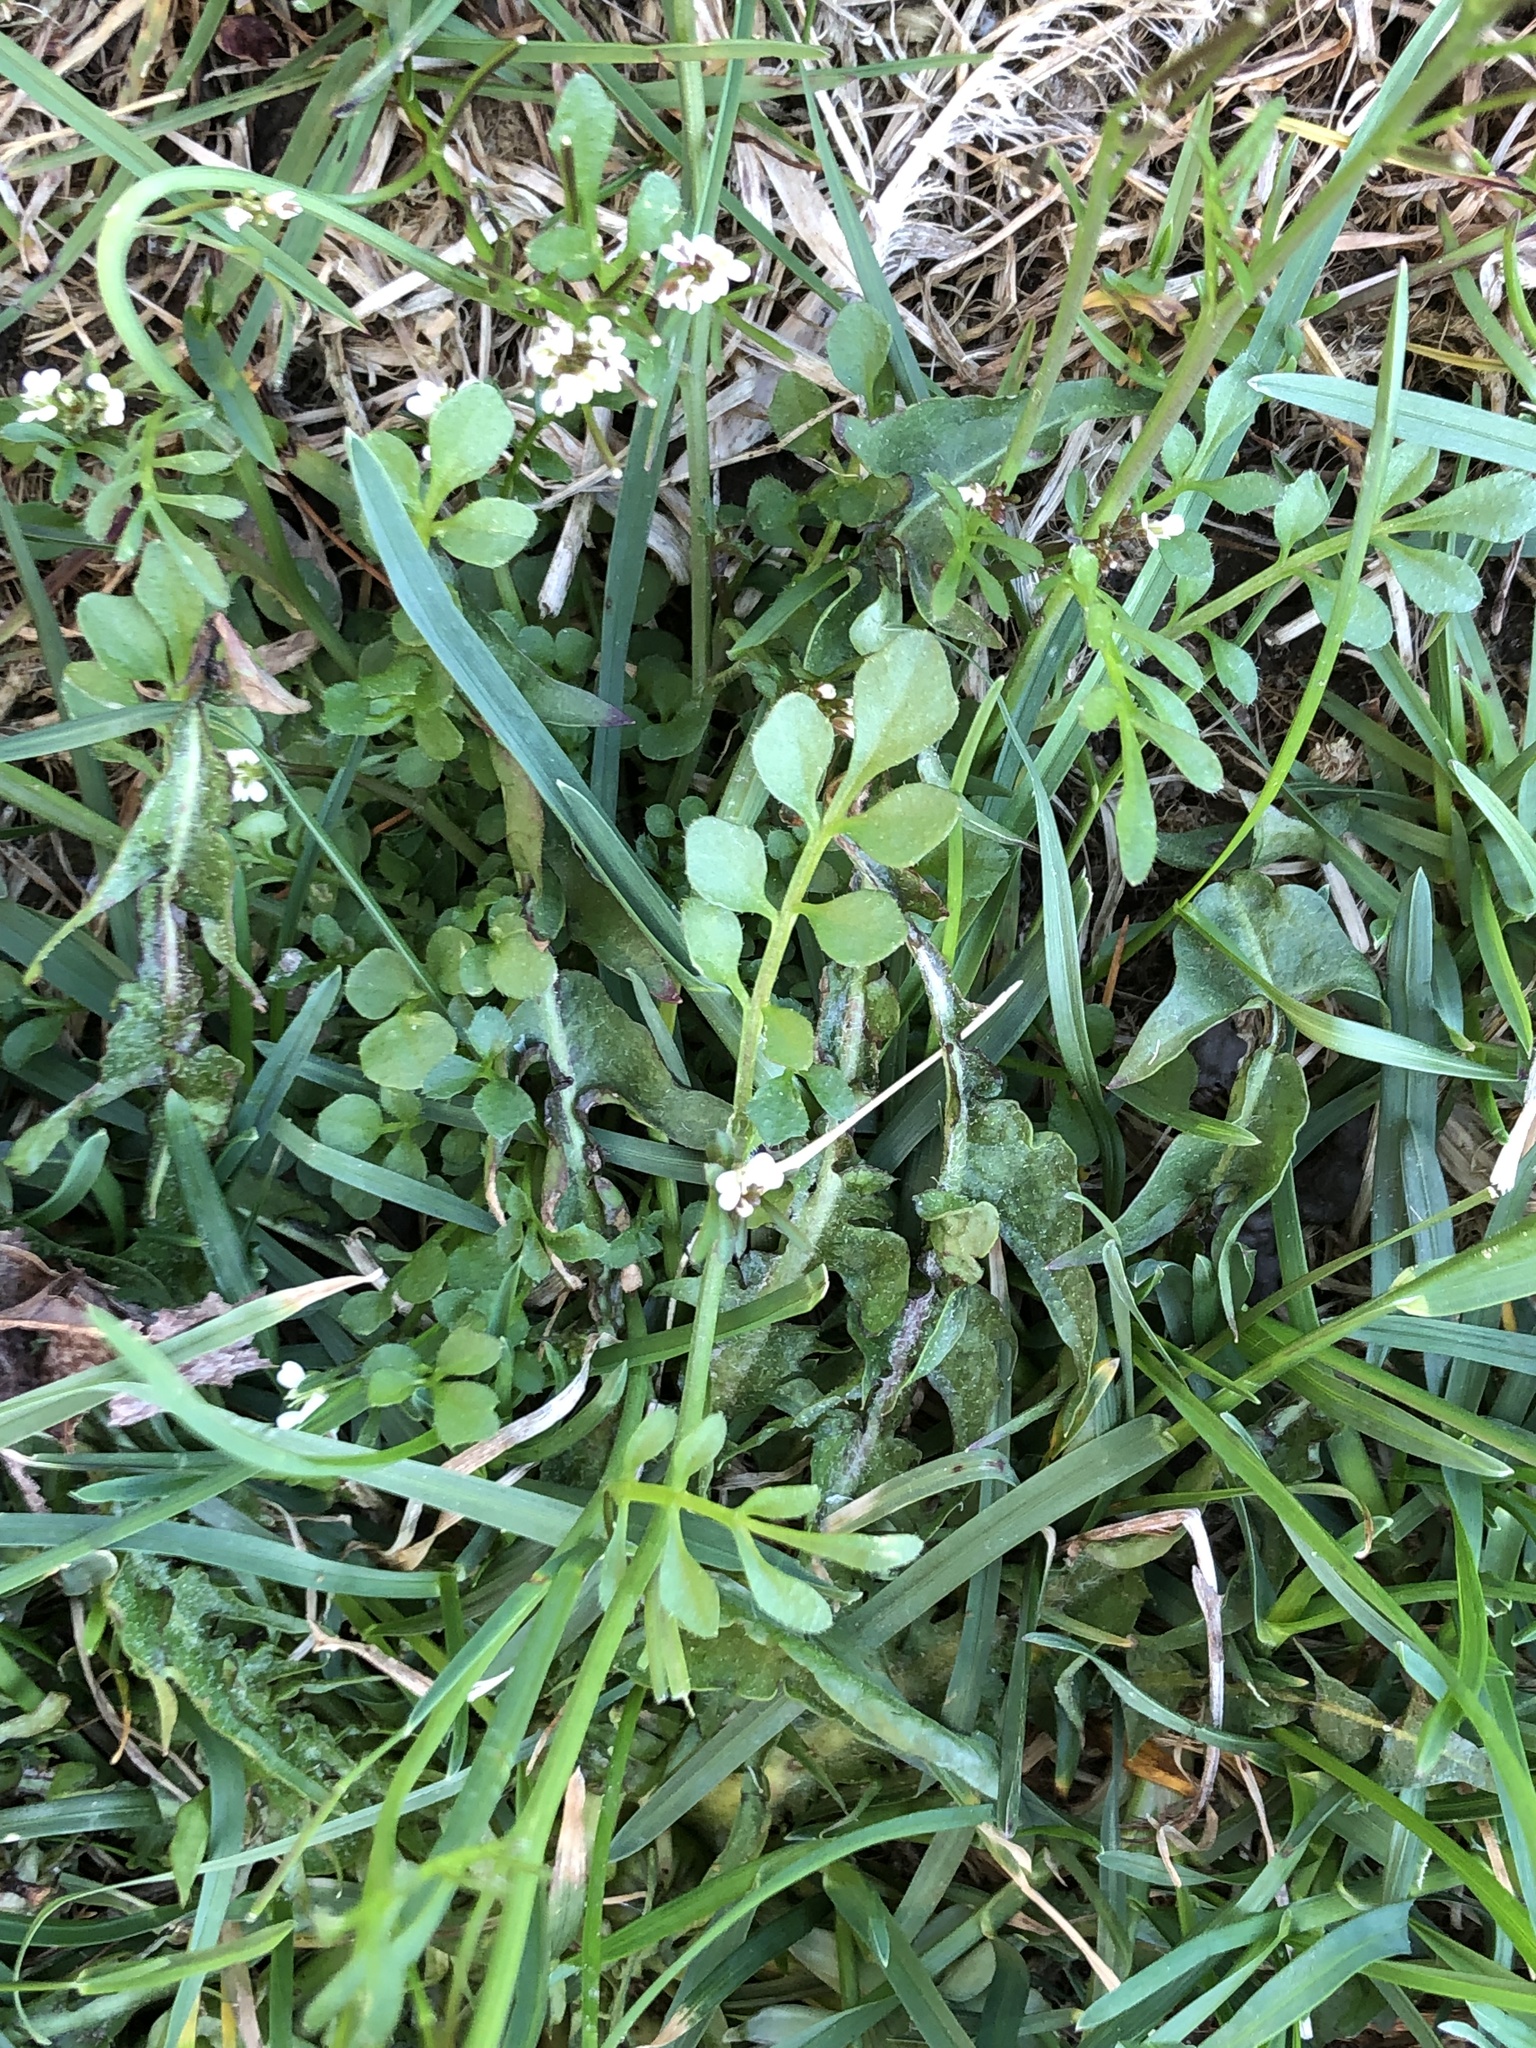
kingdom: Plantae
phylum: Tracheophyta
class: Magnoliopsida
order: Brassicales
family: Brassicaceae
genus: Cardamine
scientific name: Cardamine hirsuta
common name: Hairy bittercress
